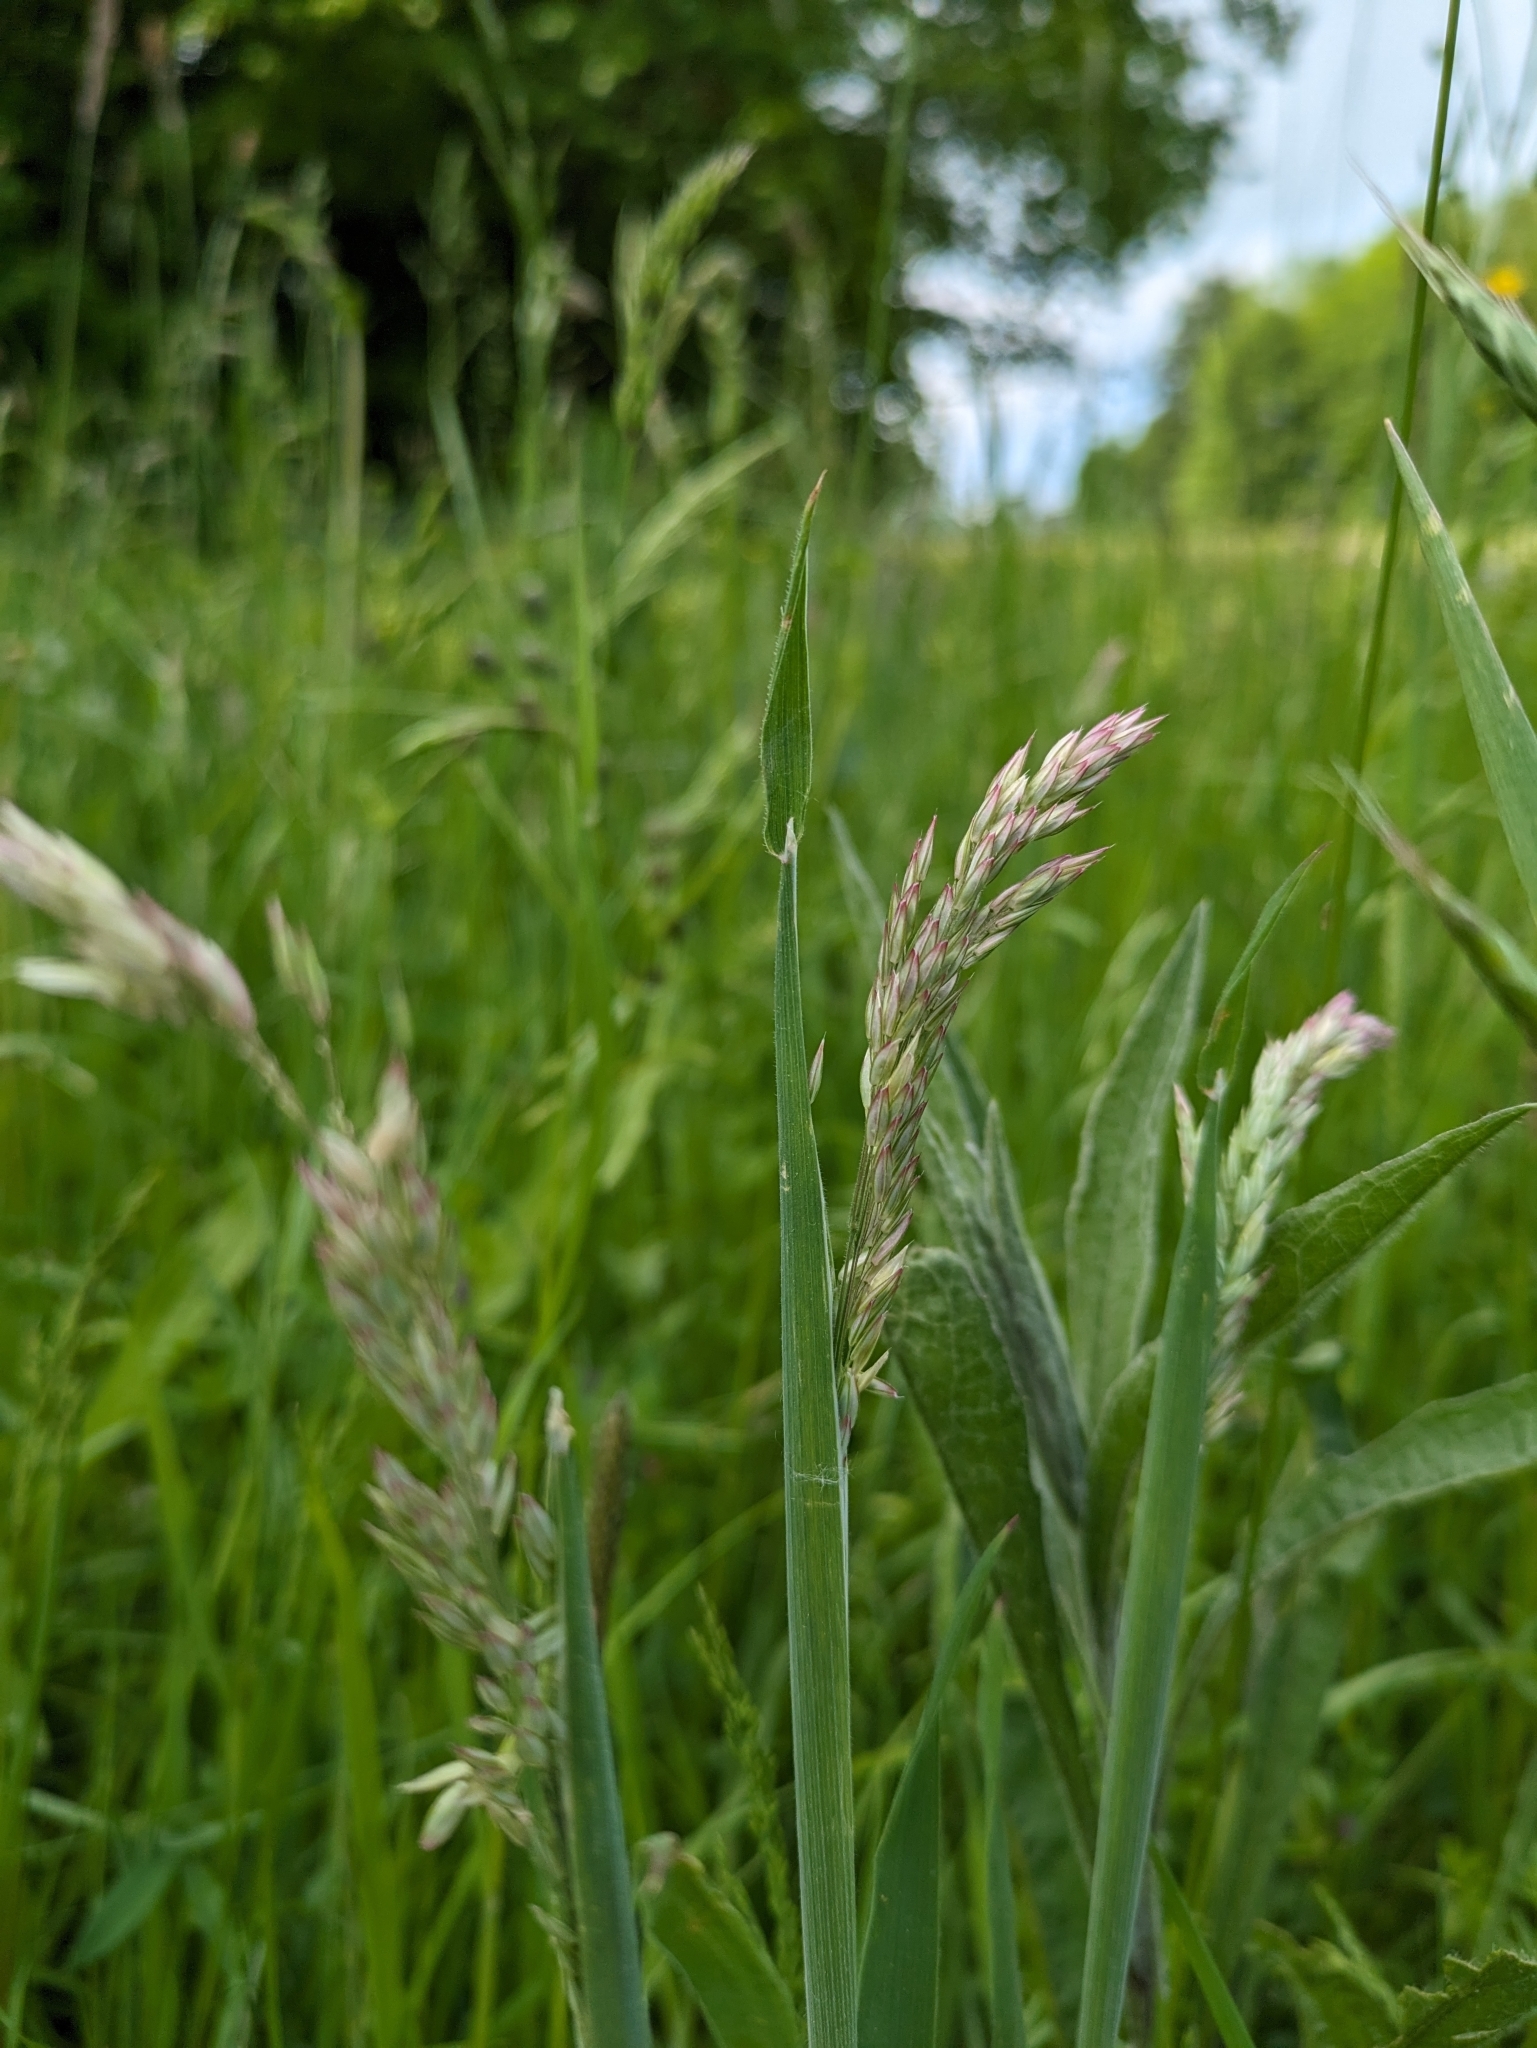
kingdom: Plantae
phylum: Tracheophyta
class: Liliopsida
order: Poales
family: Poaceae
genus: Holcus
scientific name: Holcus lanatus
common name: Yorkshire-fog
